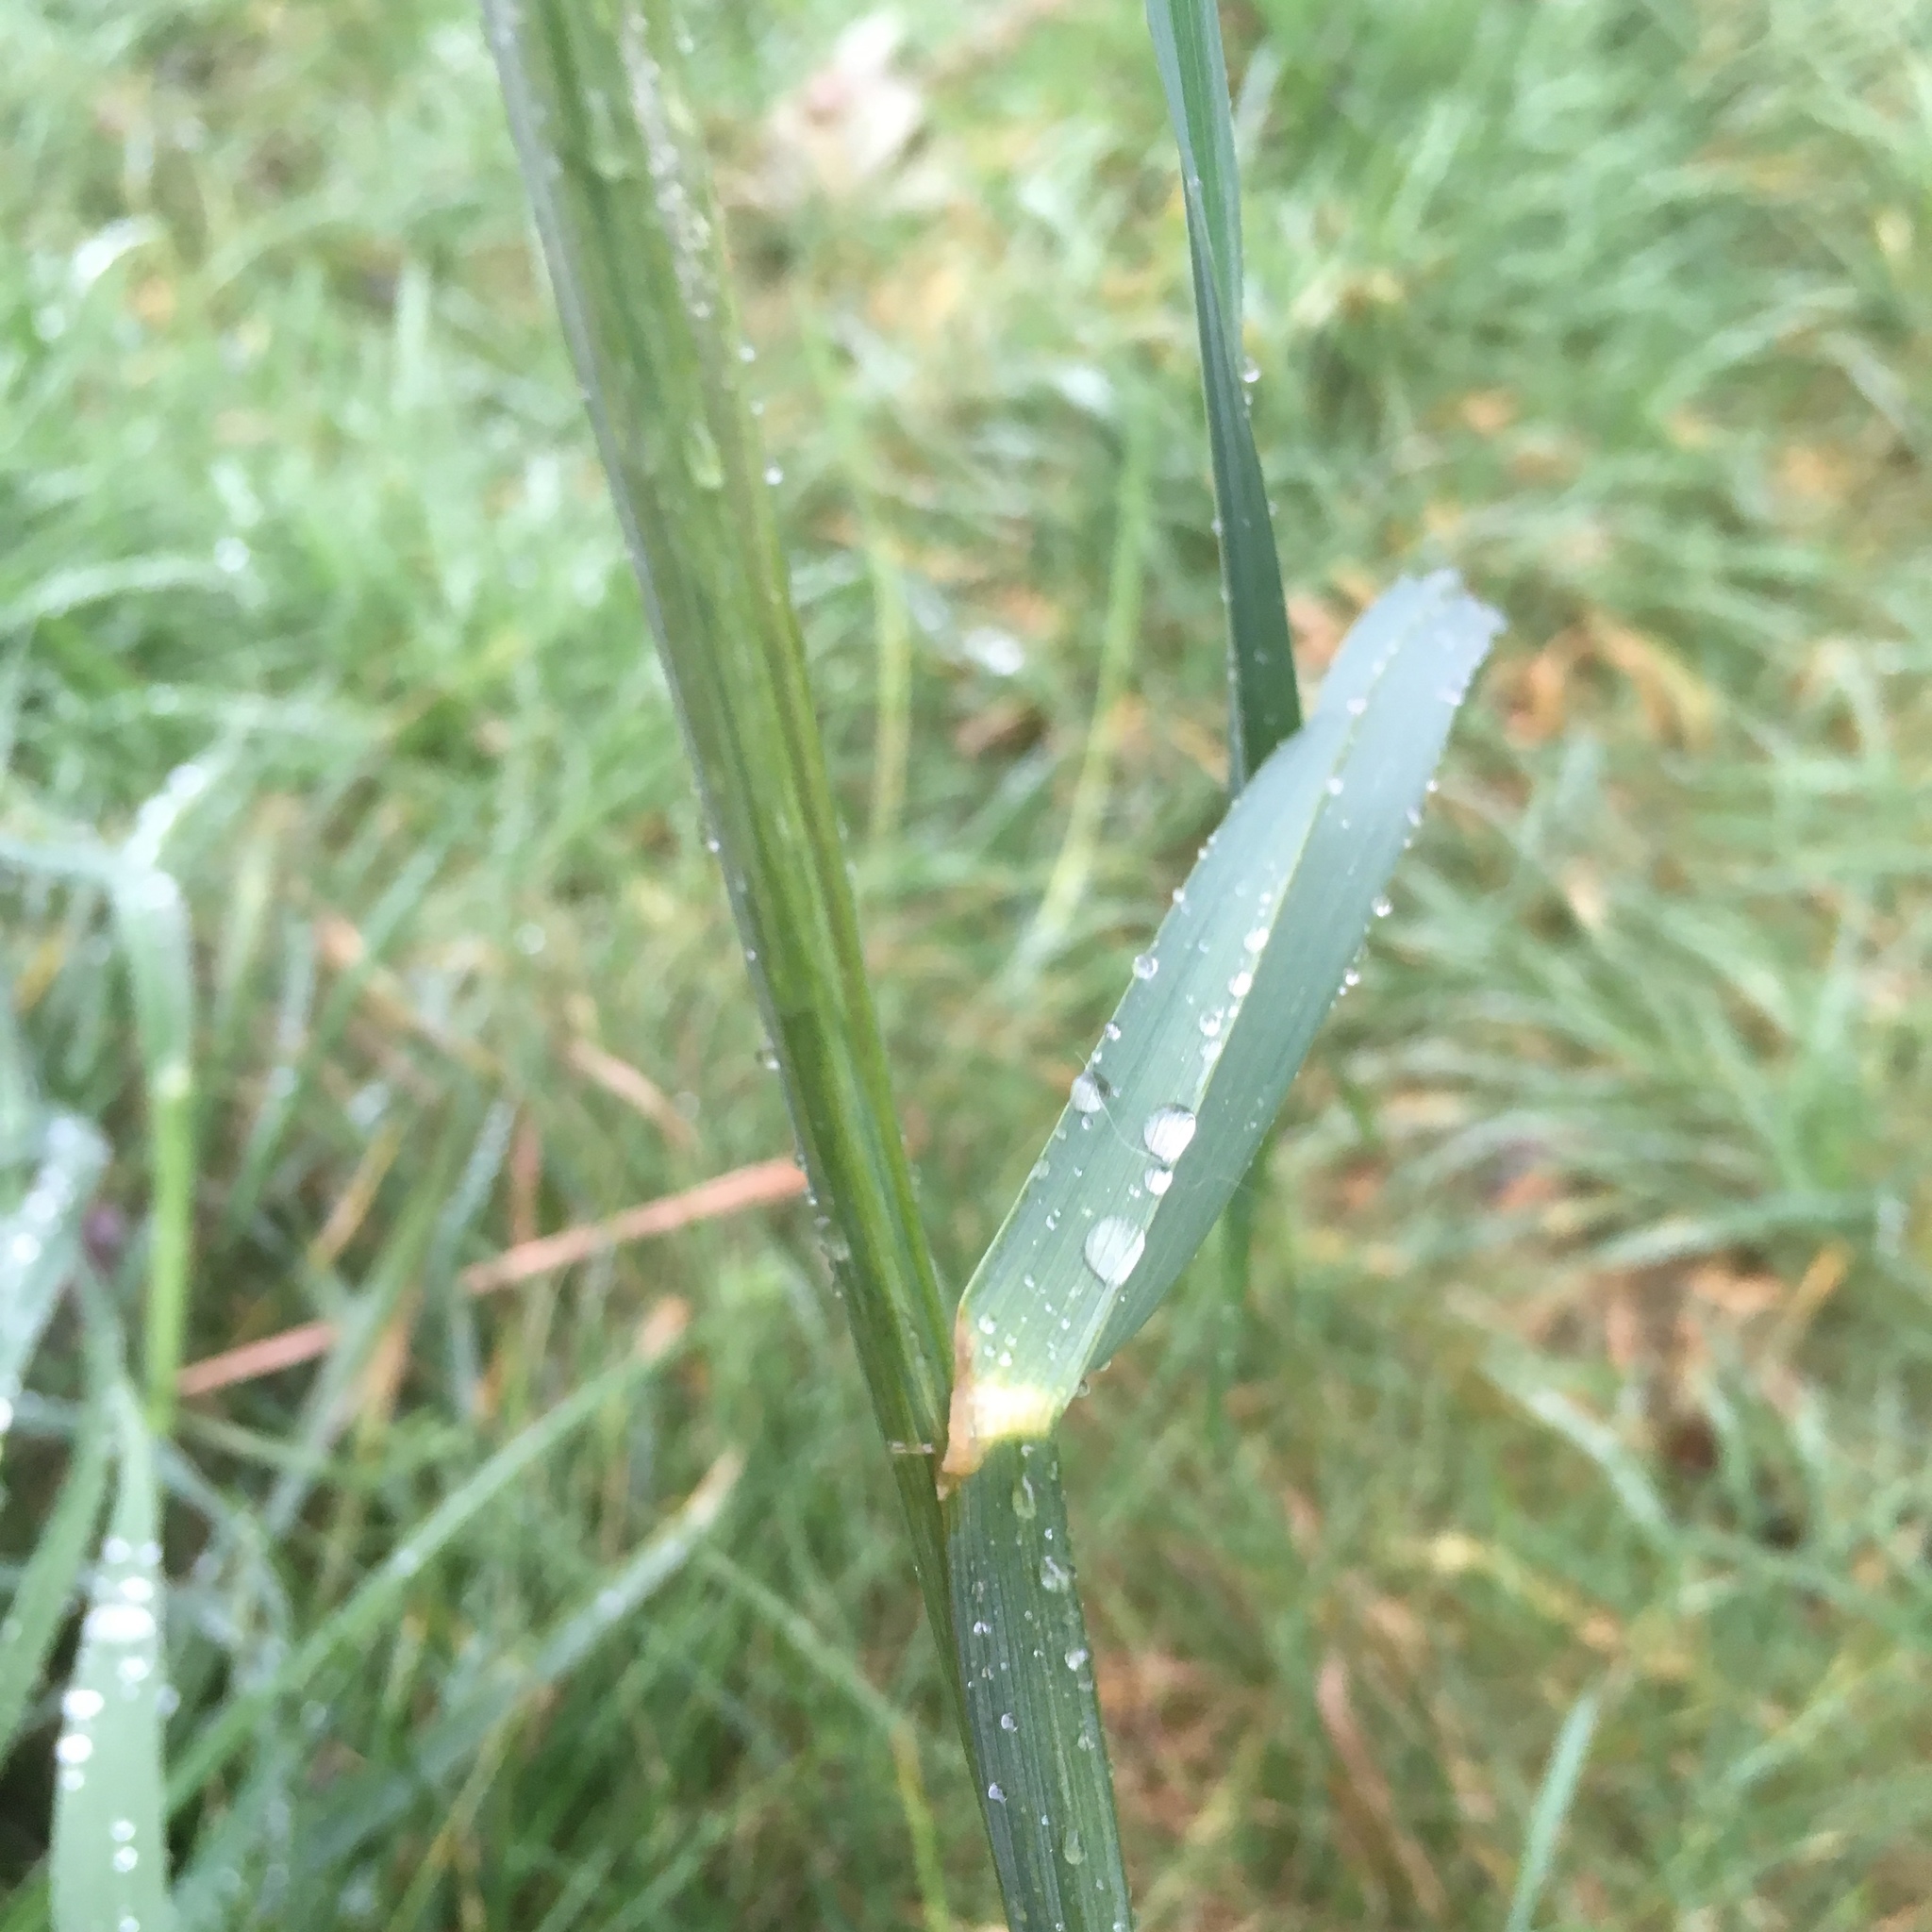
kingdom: Plantae
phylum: Tracheophyta
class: Liliopsida
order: Poales
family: Poaceae
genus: Dactylis
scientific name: Dactylis glomerata
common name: Orchardgrass
